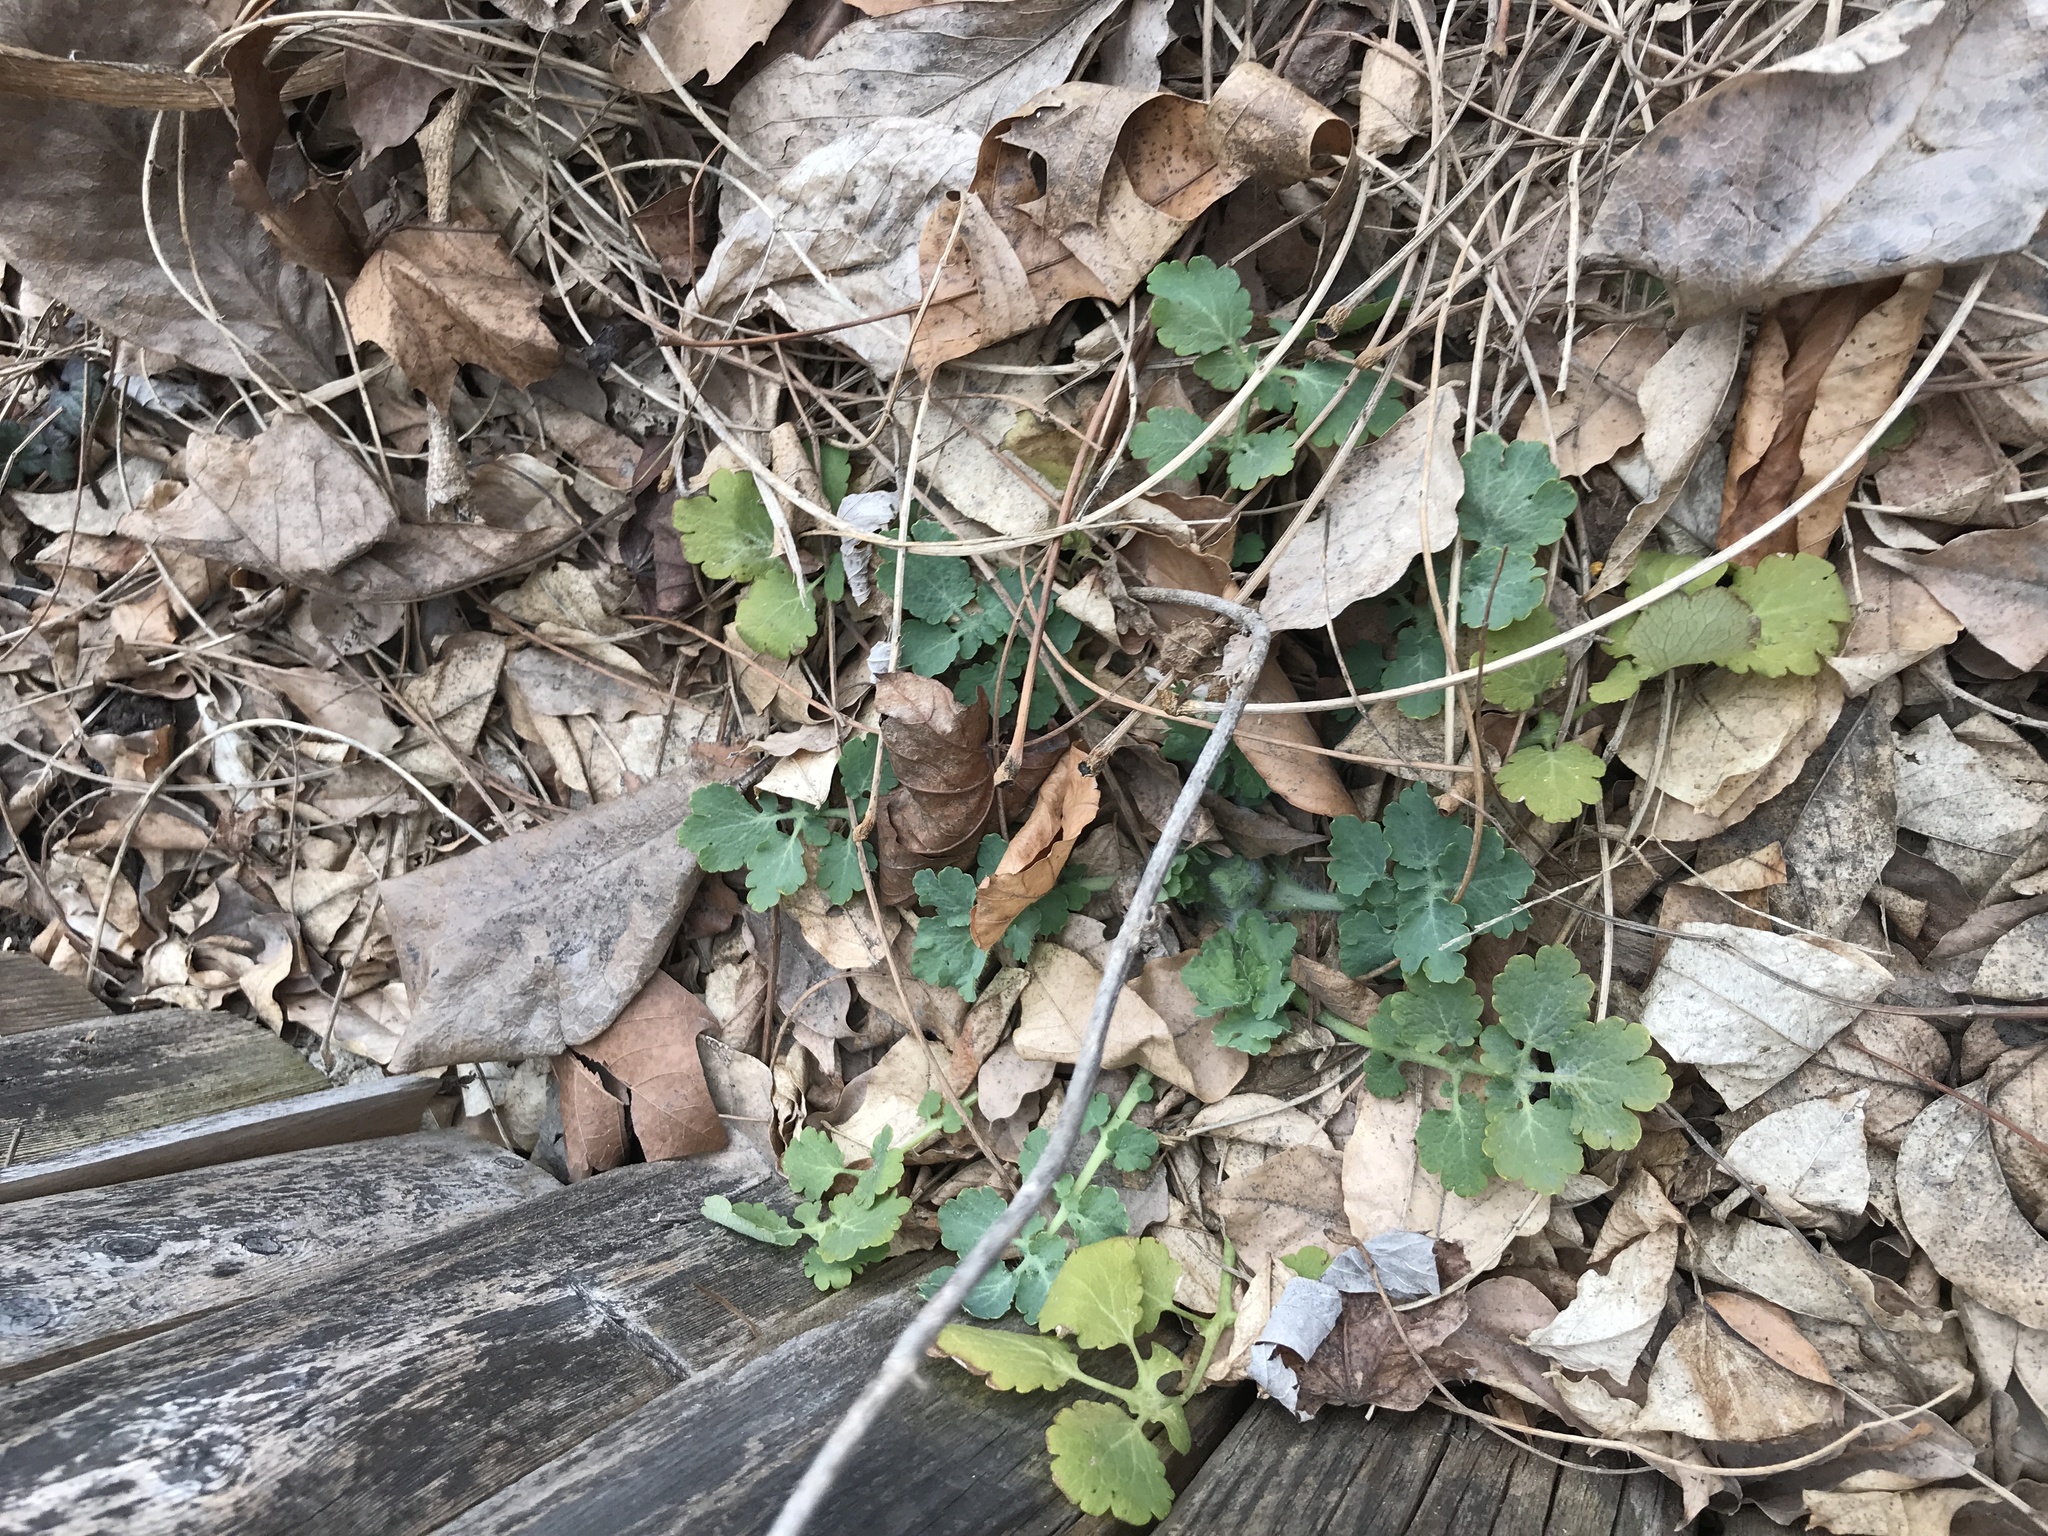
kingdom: Plantae
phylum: Tracheophyta
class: Magnoliopsida
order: Ranunculales
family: Papaveraceae
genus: Chelidonium
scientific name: Chelidonium majus
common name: Greater celandine
